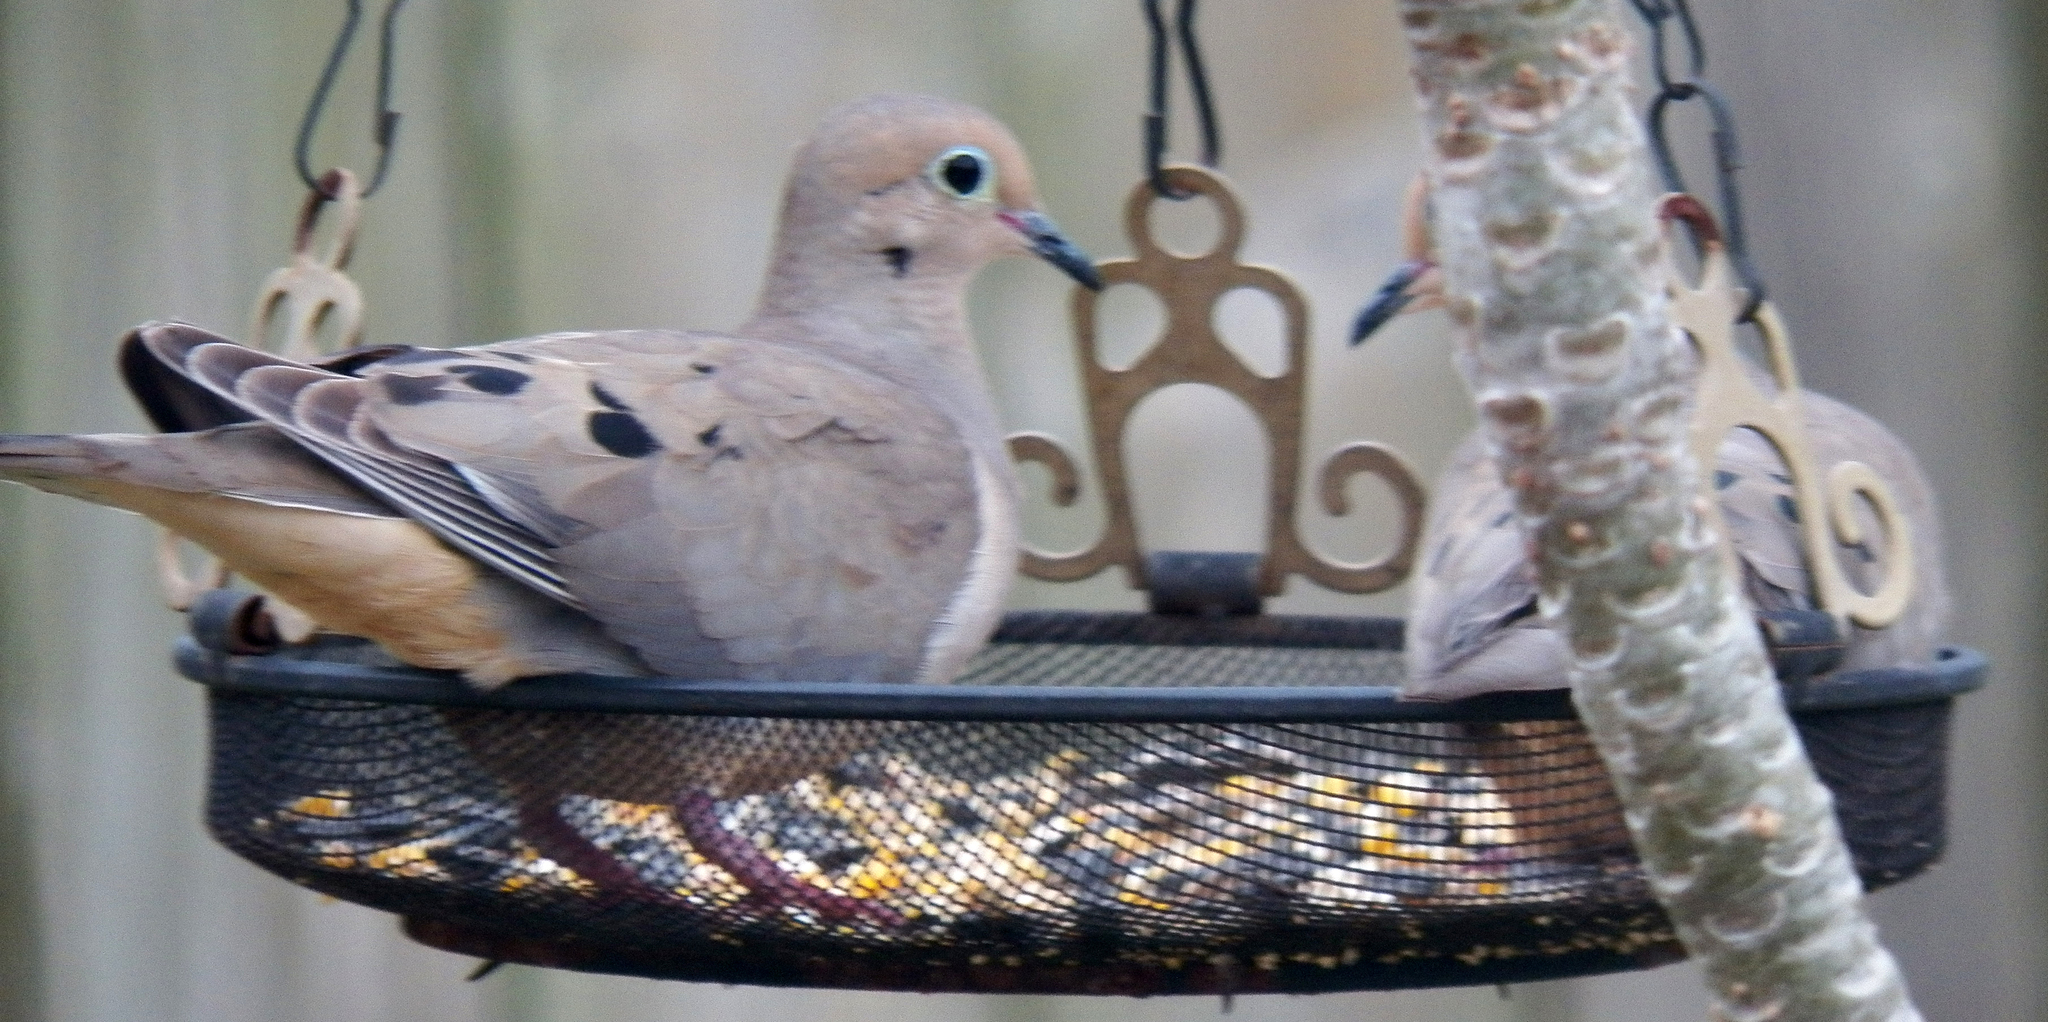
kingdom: Animalia
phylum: Chordata
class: Aves
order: Columbiformes
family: Columbidae
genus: Zenaida
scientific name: Zenaida macroura
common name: Mourning dove
